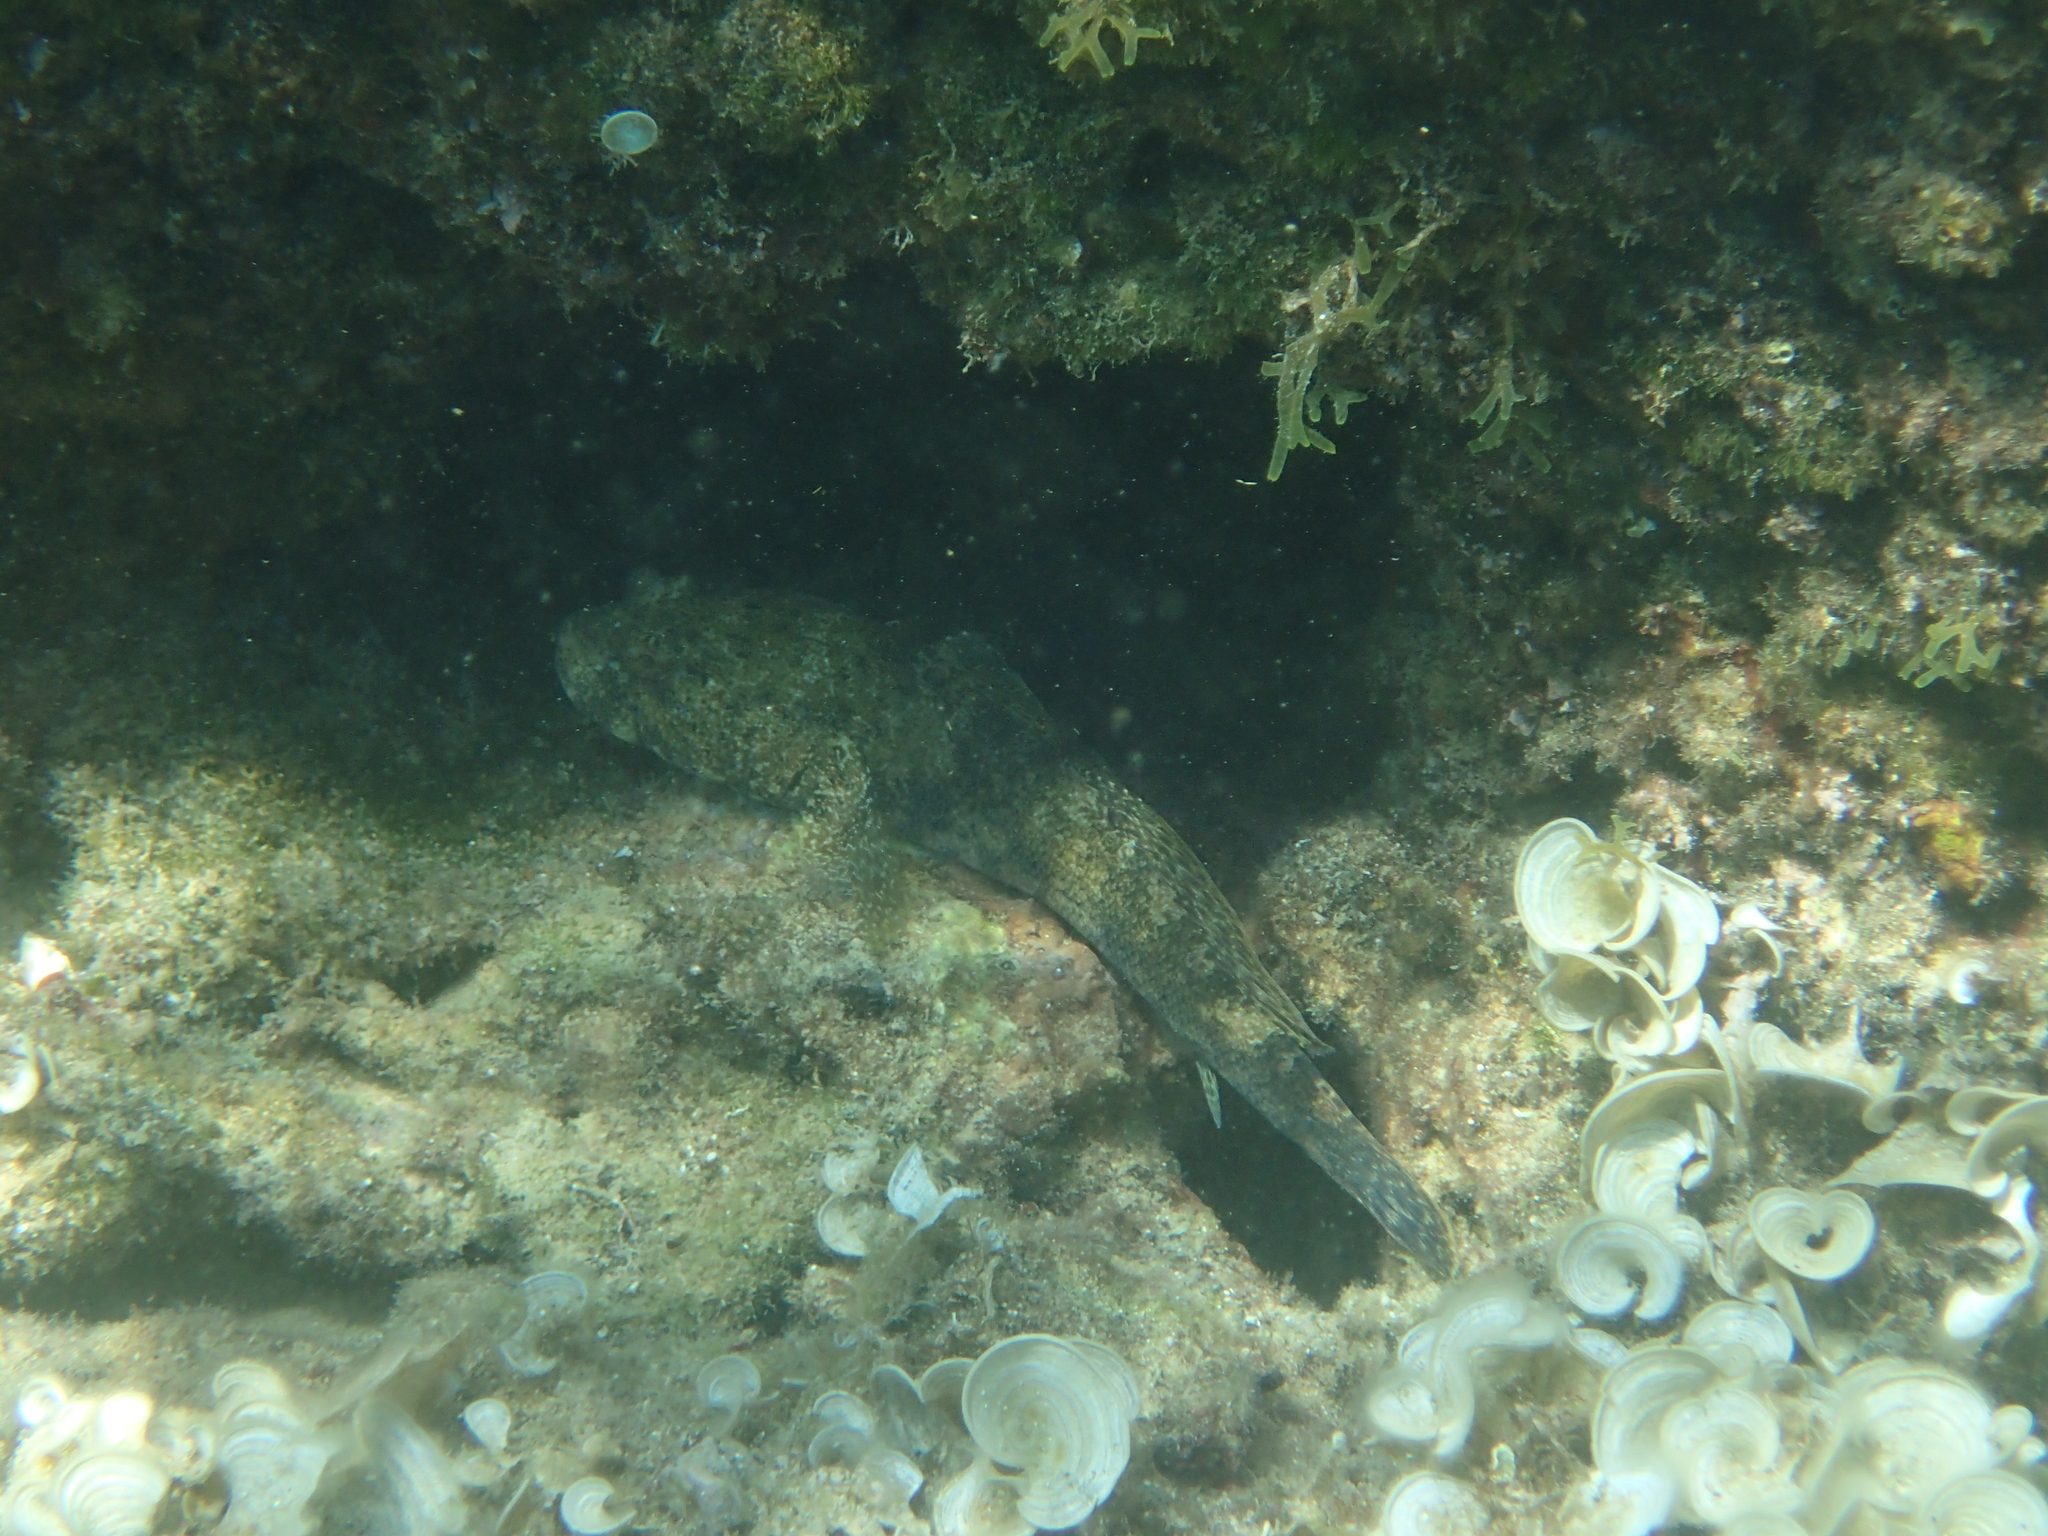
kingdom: Animalia
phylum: Chordata
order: Perciformes
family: Gobiidae
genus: Gobius
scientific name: Gobius cobitis
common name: Giant goby
